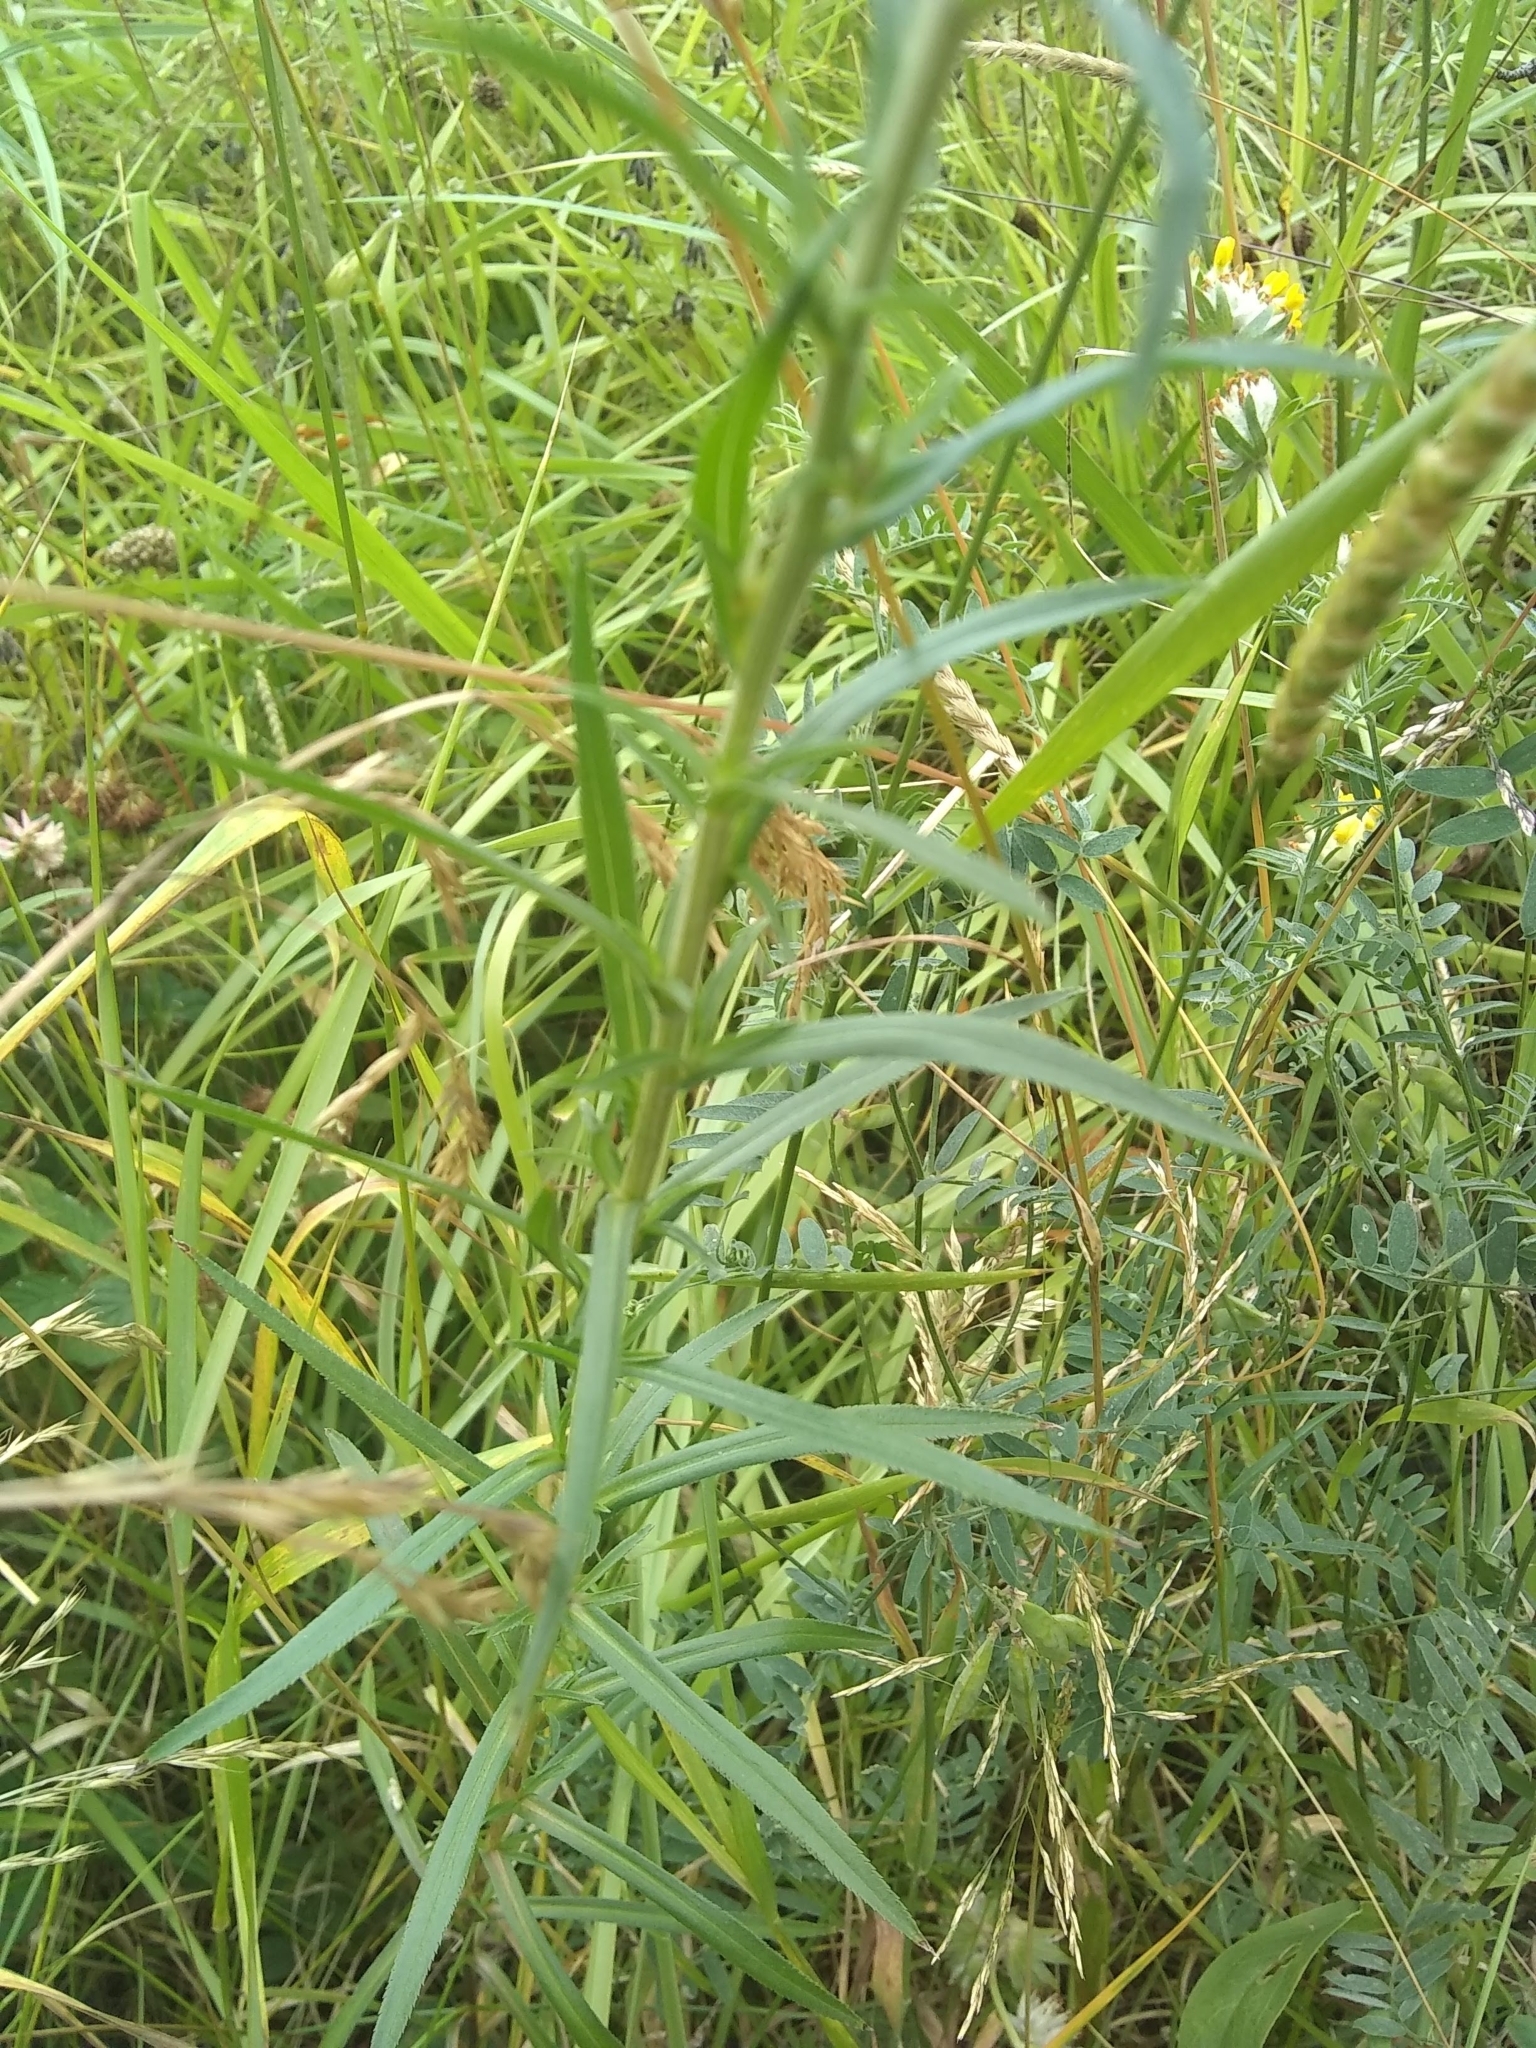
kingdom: Plantae
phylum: Tracheophyta
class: Magnoliopsida
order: Asterales
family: Asteraceae
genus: Achillea
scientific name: Achillea ptarmica
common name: Sneezeweed
